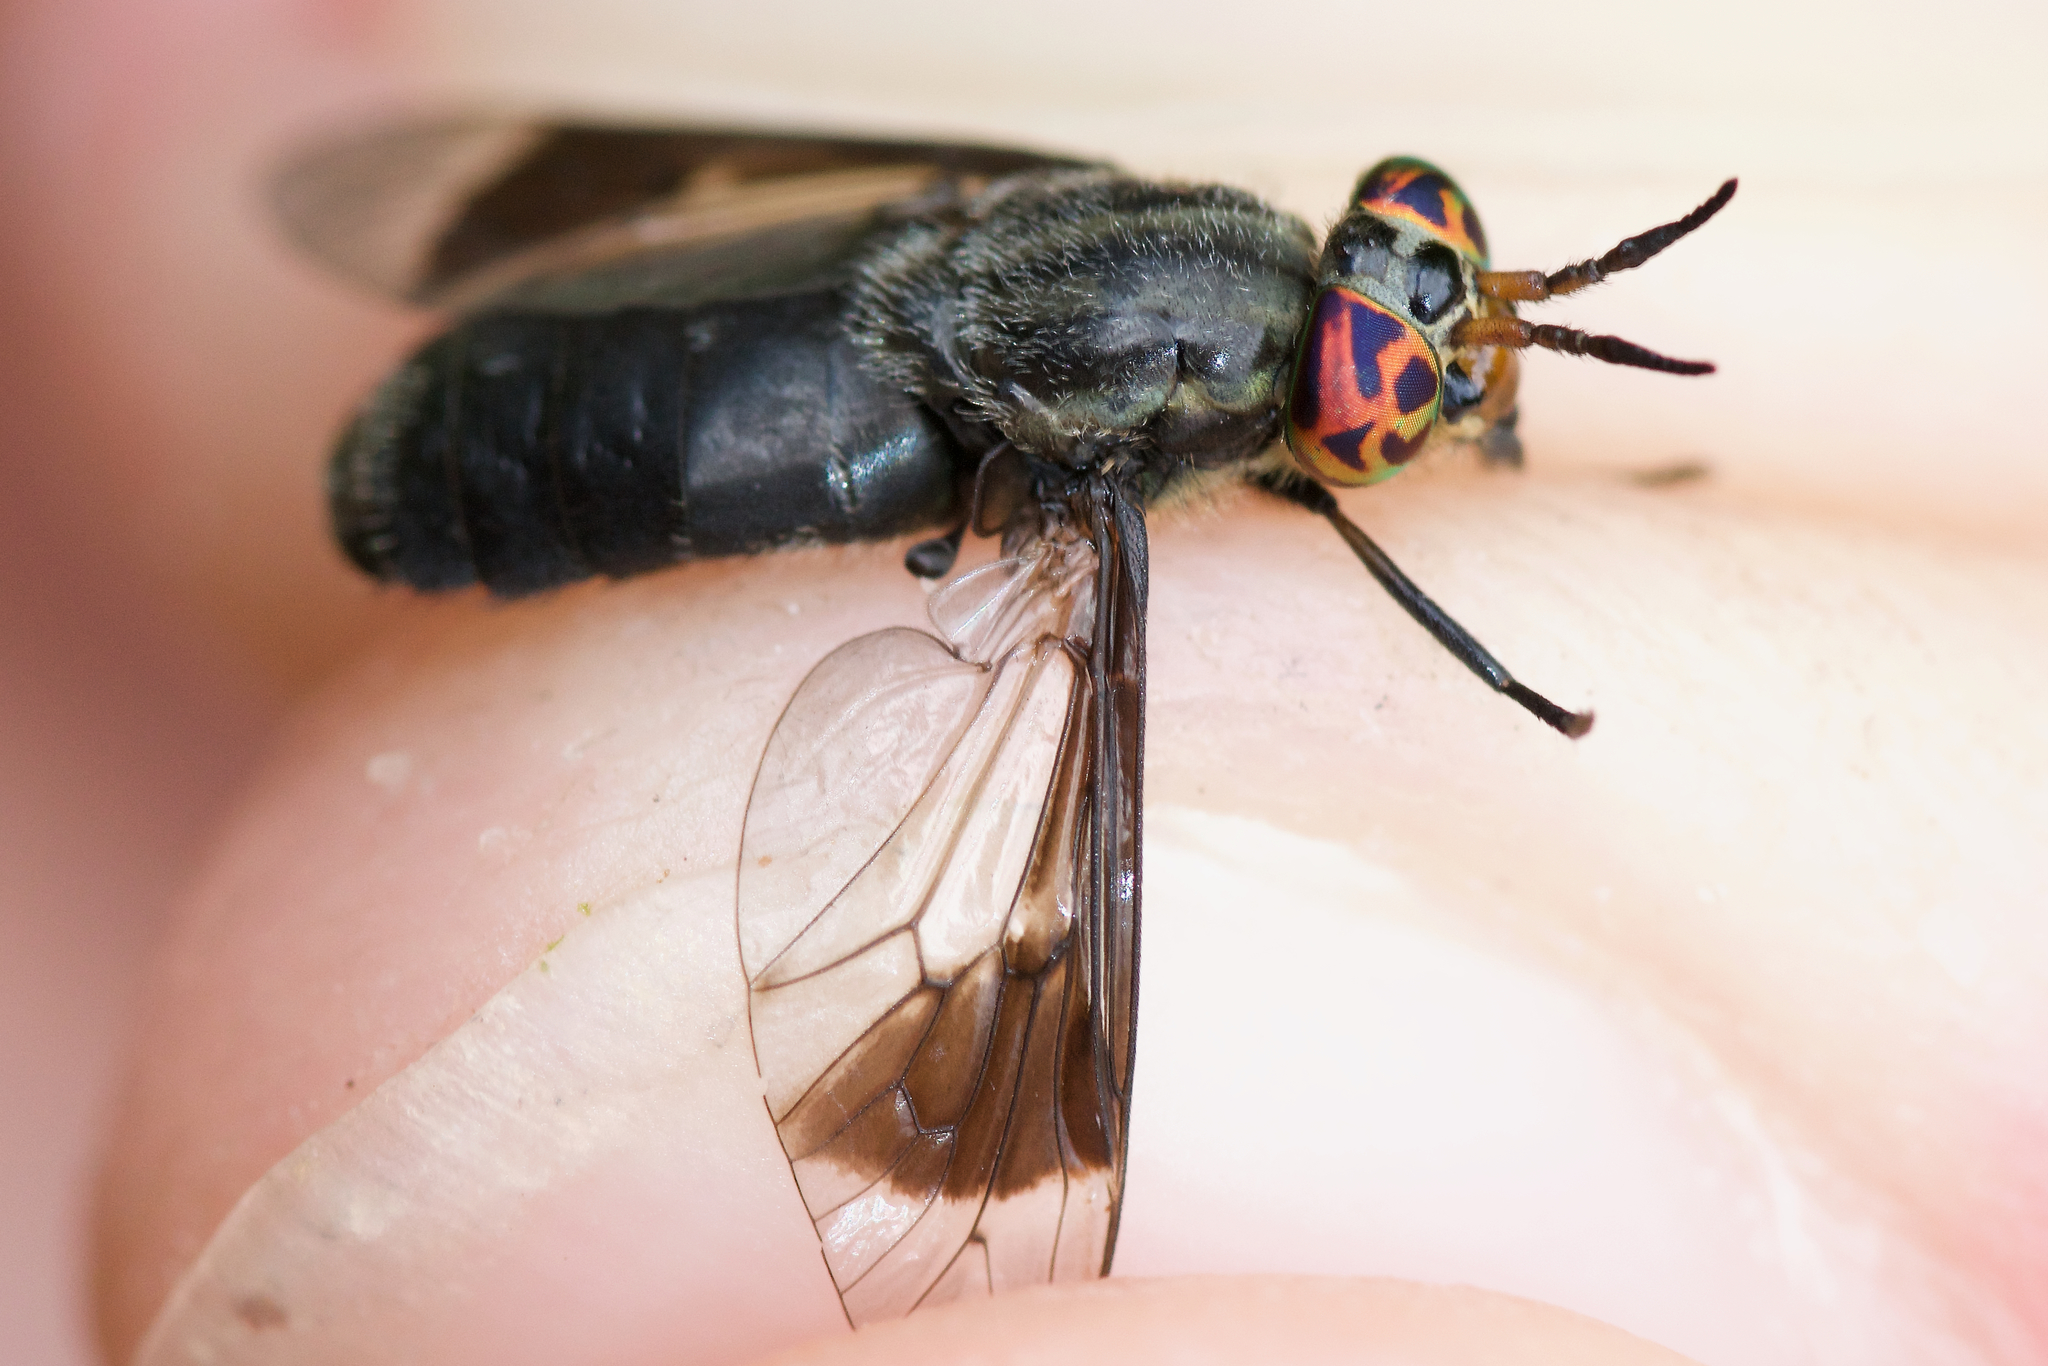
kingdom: Animalia
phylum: Arthropoda
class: Insecta
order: Diptera
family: Tabanidae
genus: Chrysops
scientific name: Chrysops niger
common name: Black deer fly
